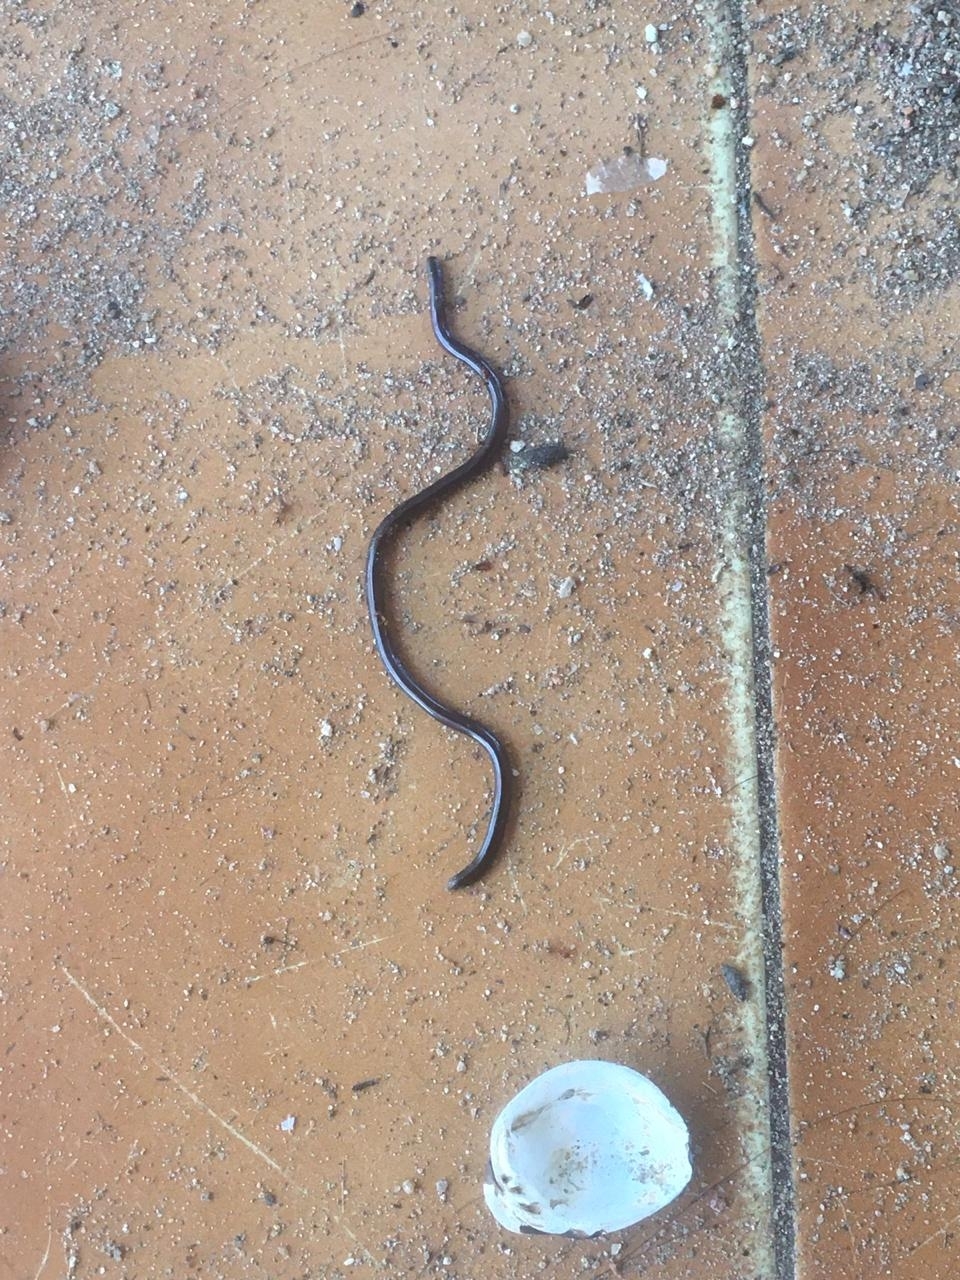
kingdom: Animalia
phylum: Chordata
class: Squamata
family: Typhlopidae
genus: Indotyphlops
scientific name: Indotyphlops braminus
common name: Brahminy blindsnake
